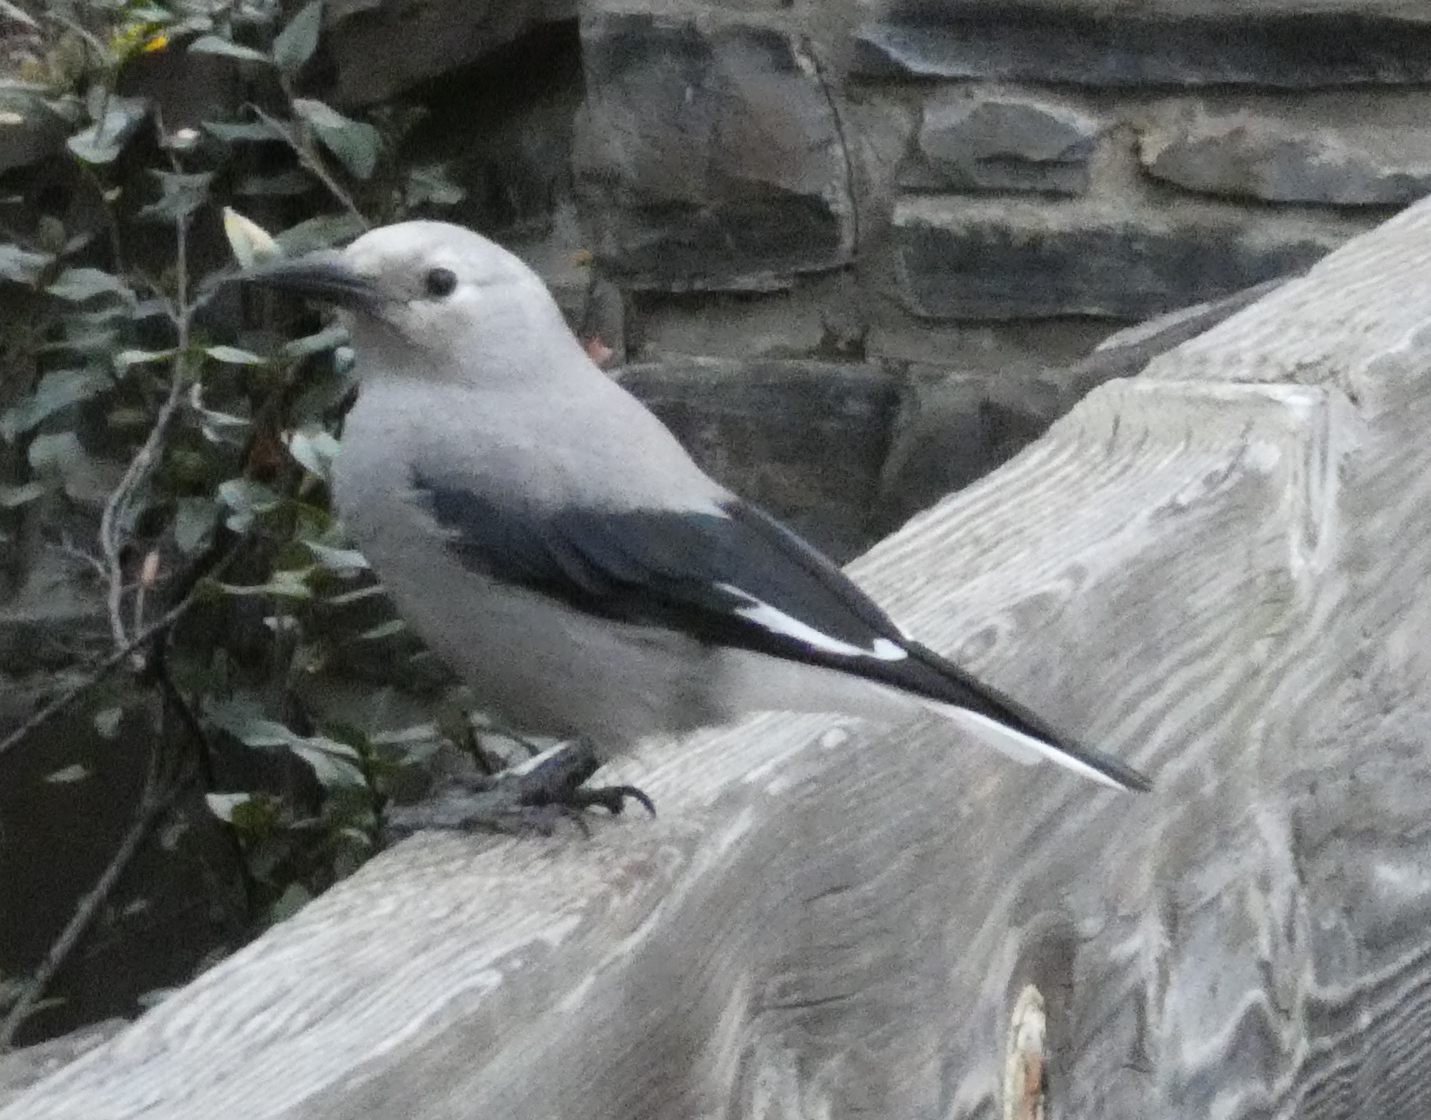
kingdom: Animalia
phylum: Chordata
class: Aves
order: Passeriformes
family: Corvidae
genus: Nucifraga
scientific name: Nucifraga columbiana
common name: Clark's nutcracker
